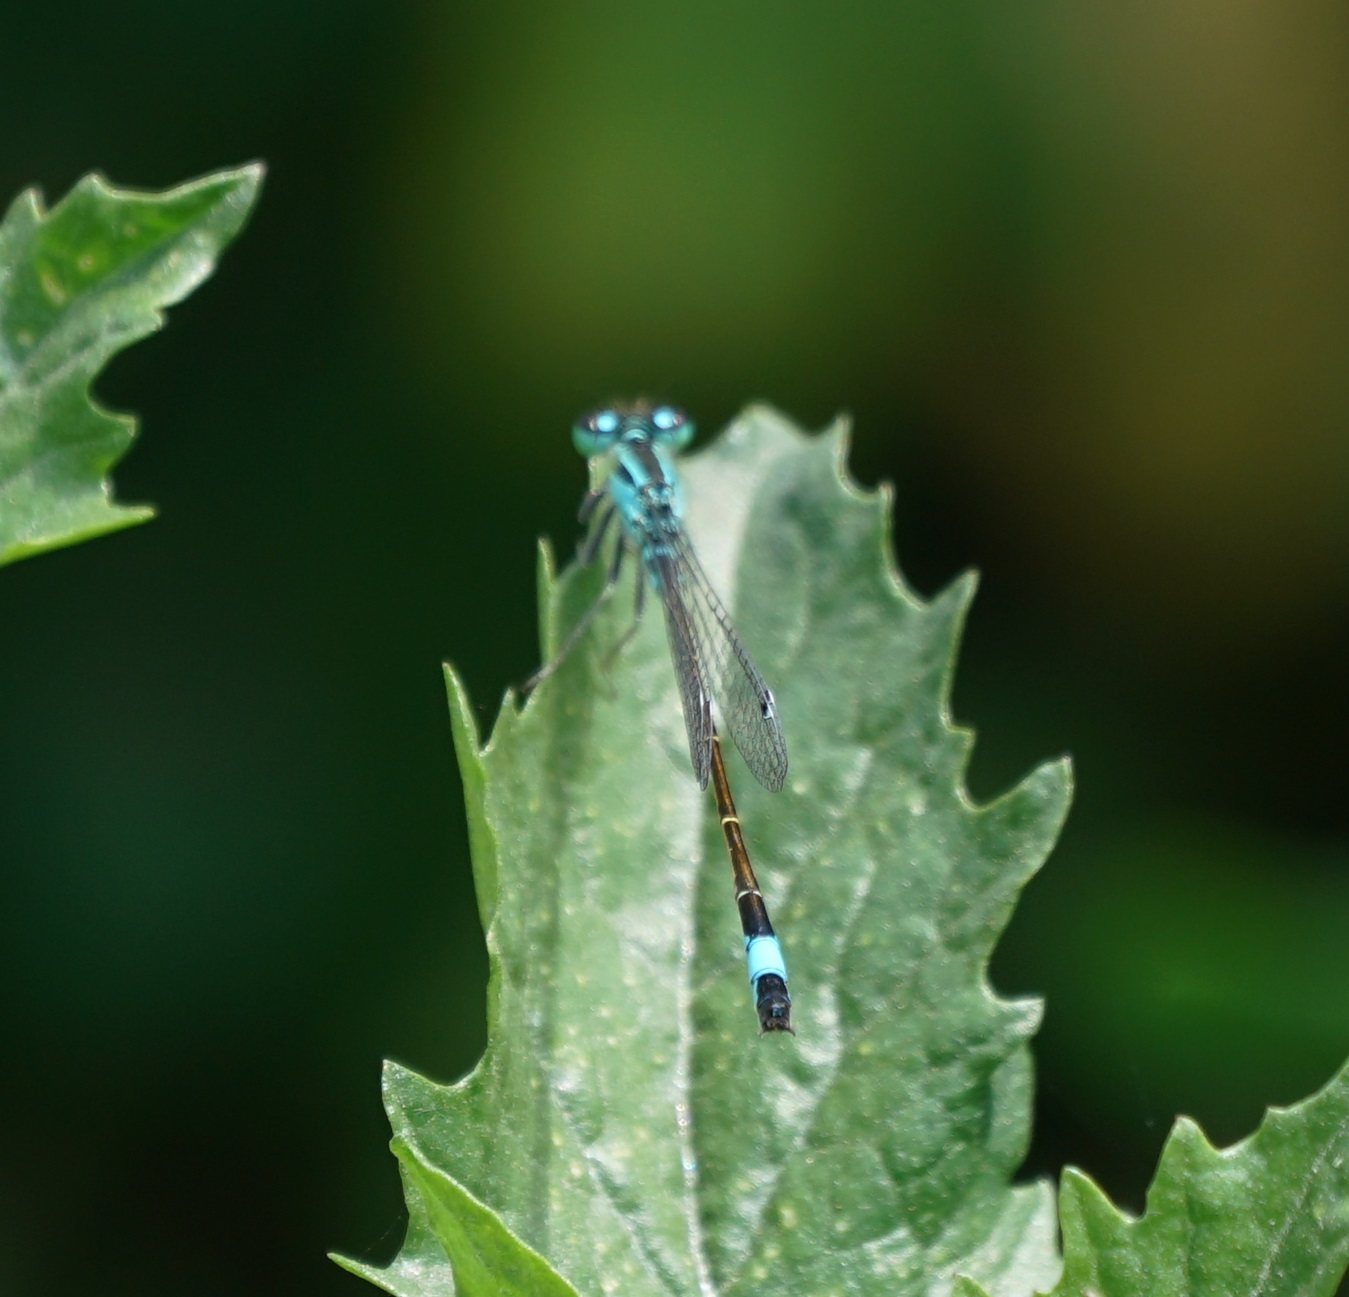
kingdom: Animalia
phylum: Arthropoda
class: Insecta
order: Odonata
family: Coenagrionidae
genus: Ischnura
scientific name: Ischnura elegans
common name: Blue-tailed damselfly
